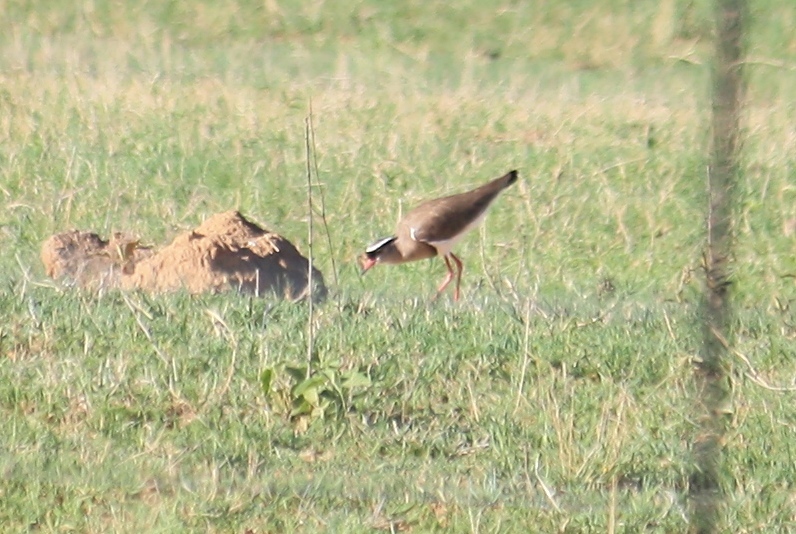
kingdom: Animalia
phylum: Chordata
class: Aves
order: Charadriiformes
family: Charadriidae
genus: Vanellus
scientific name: Vanellus coronatus
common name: Crowned lapwing
